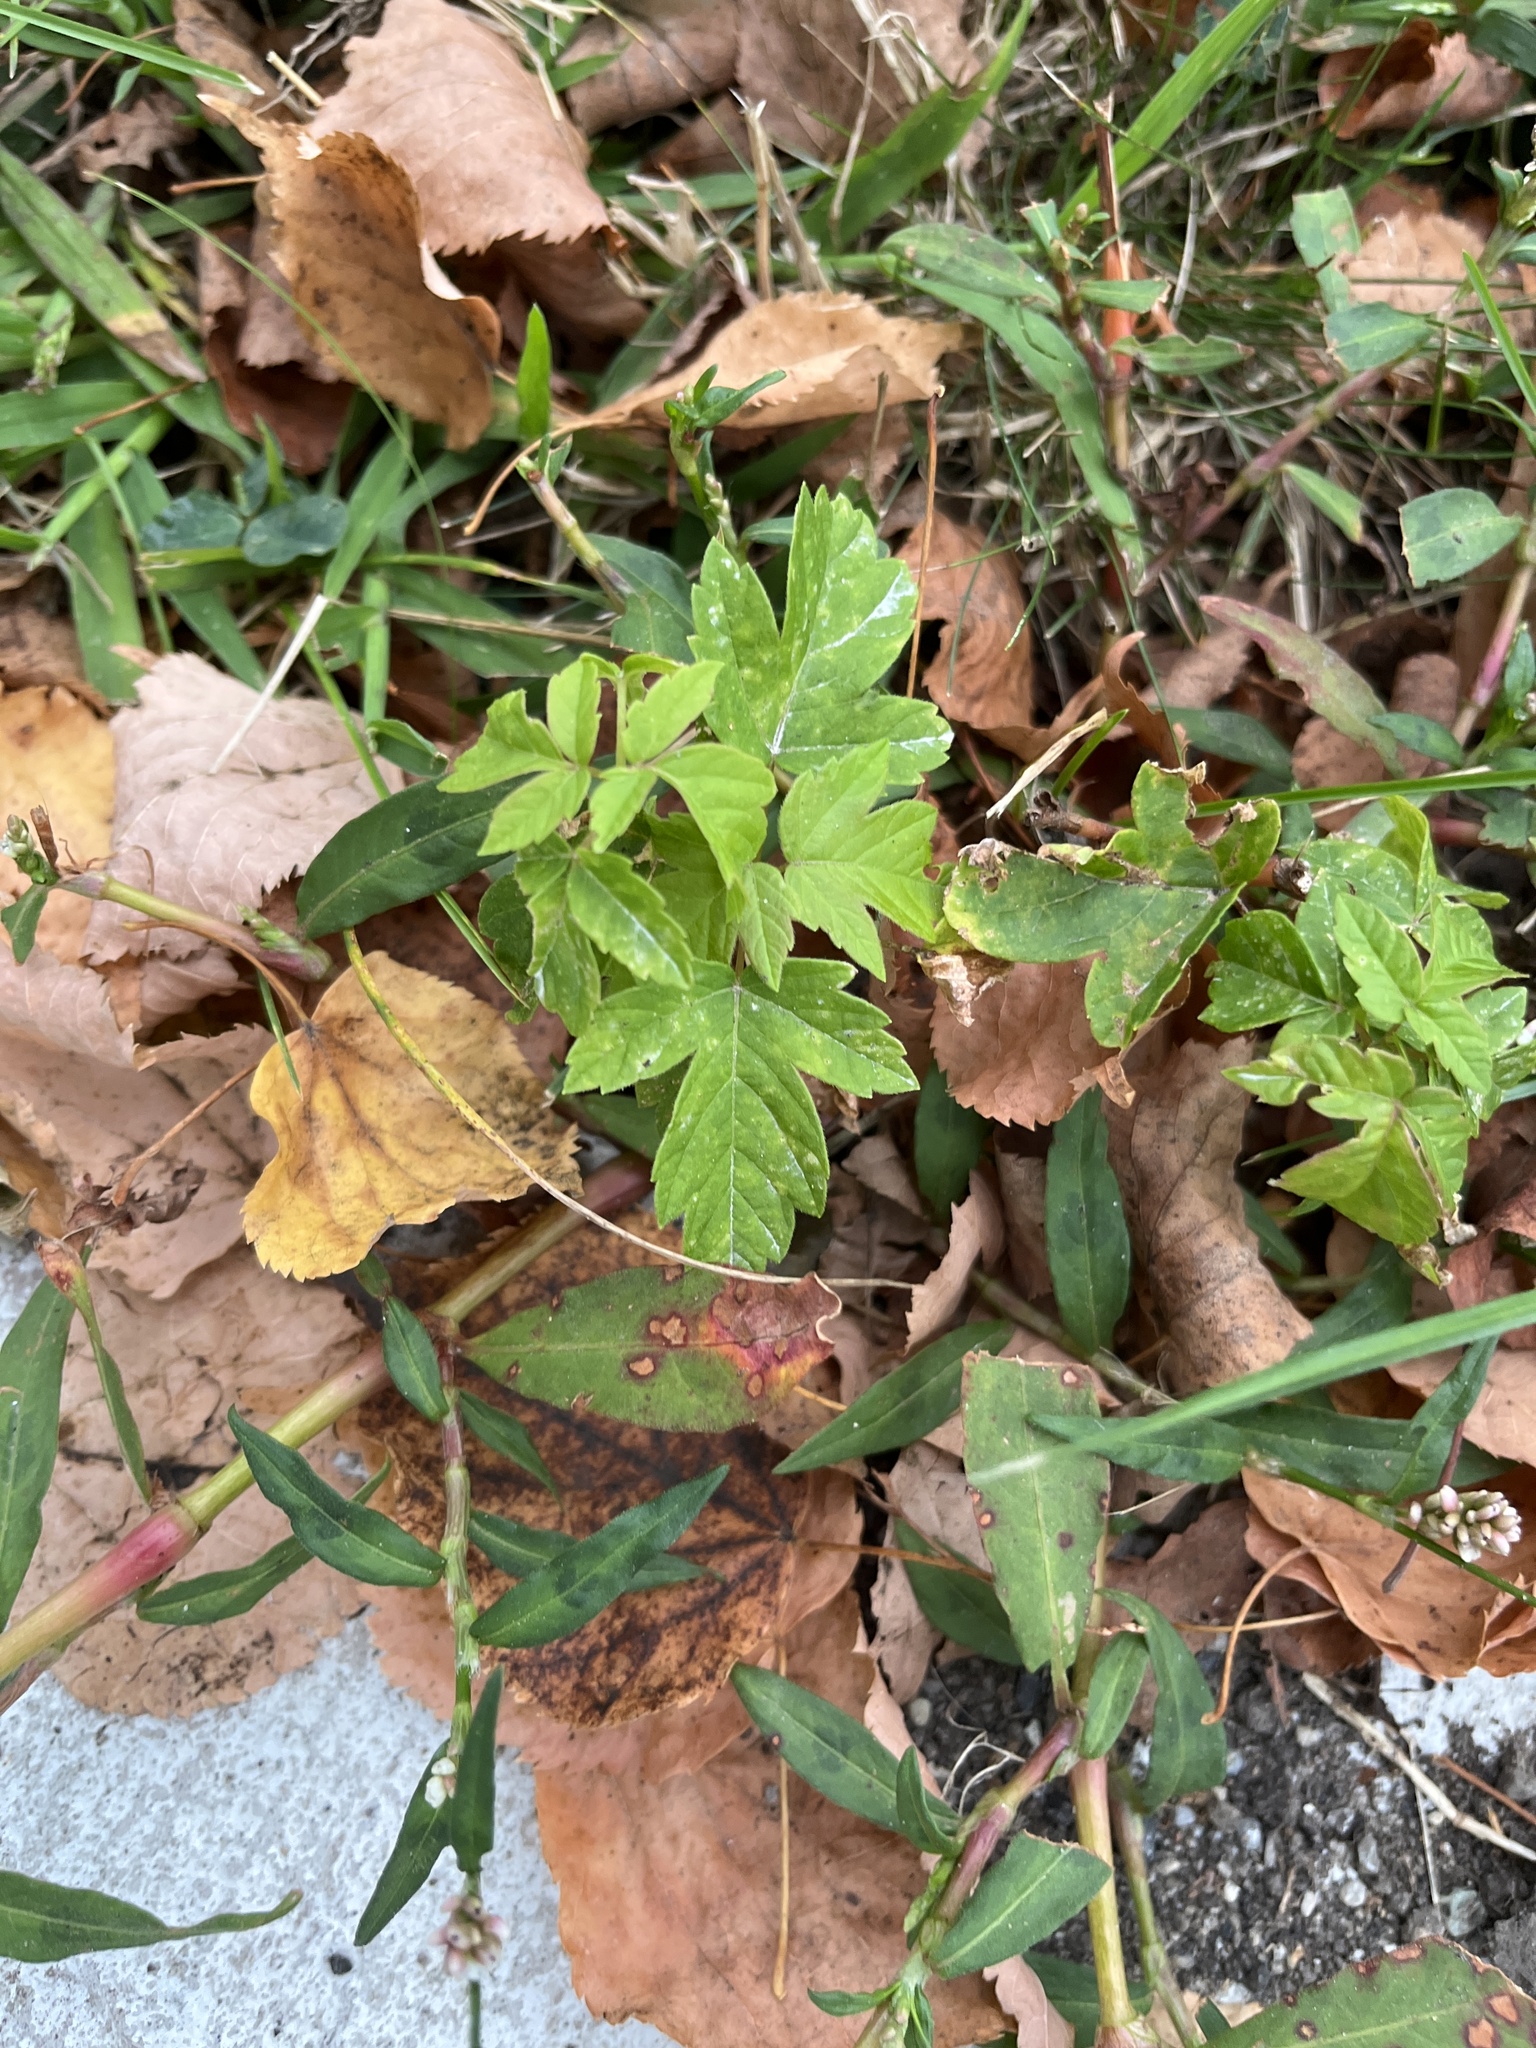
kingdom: Plantae
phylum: Tracheophyta
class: Magnoliopsida
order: Sapindales
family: Sapindaceae
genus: Acer
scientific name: Acer negundo
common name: Ashleaf maple
